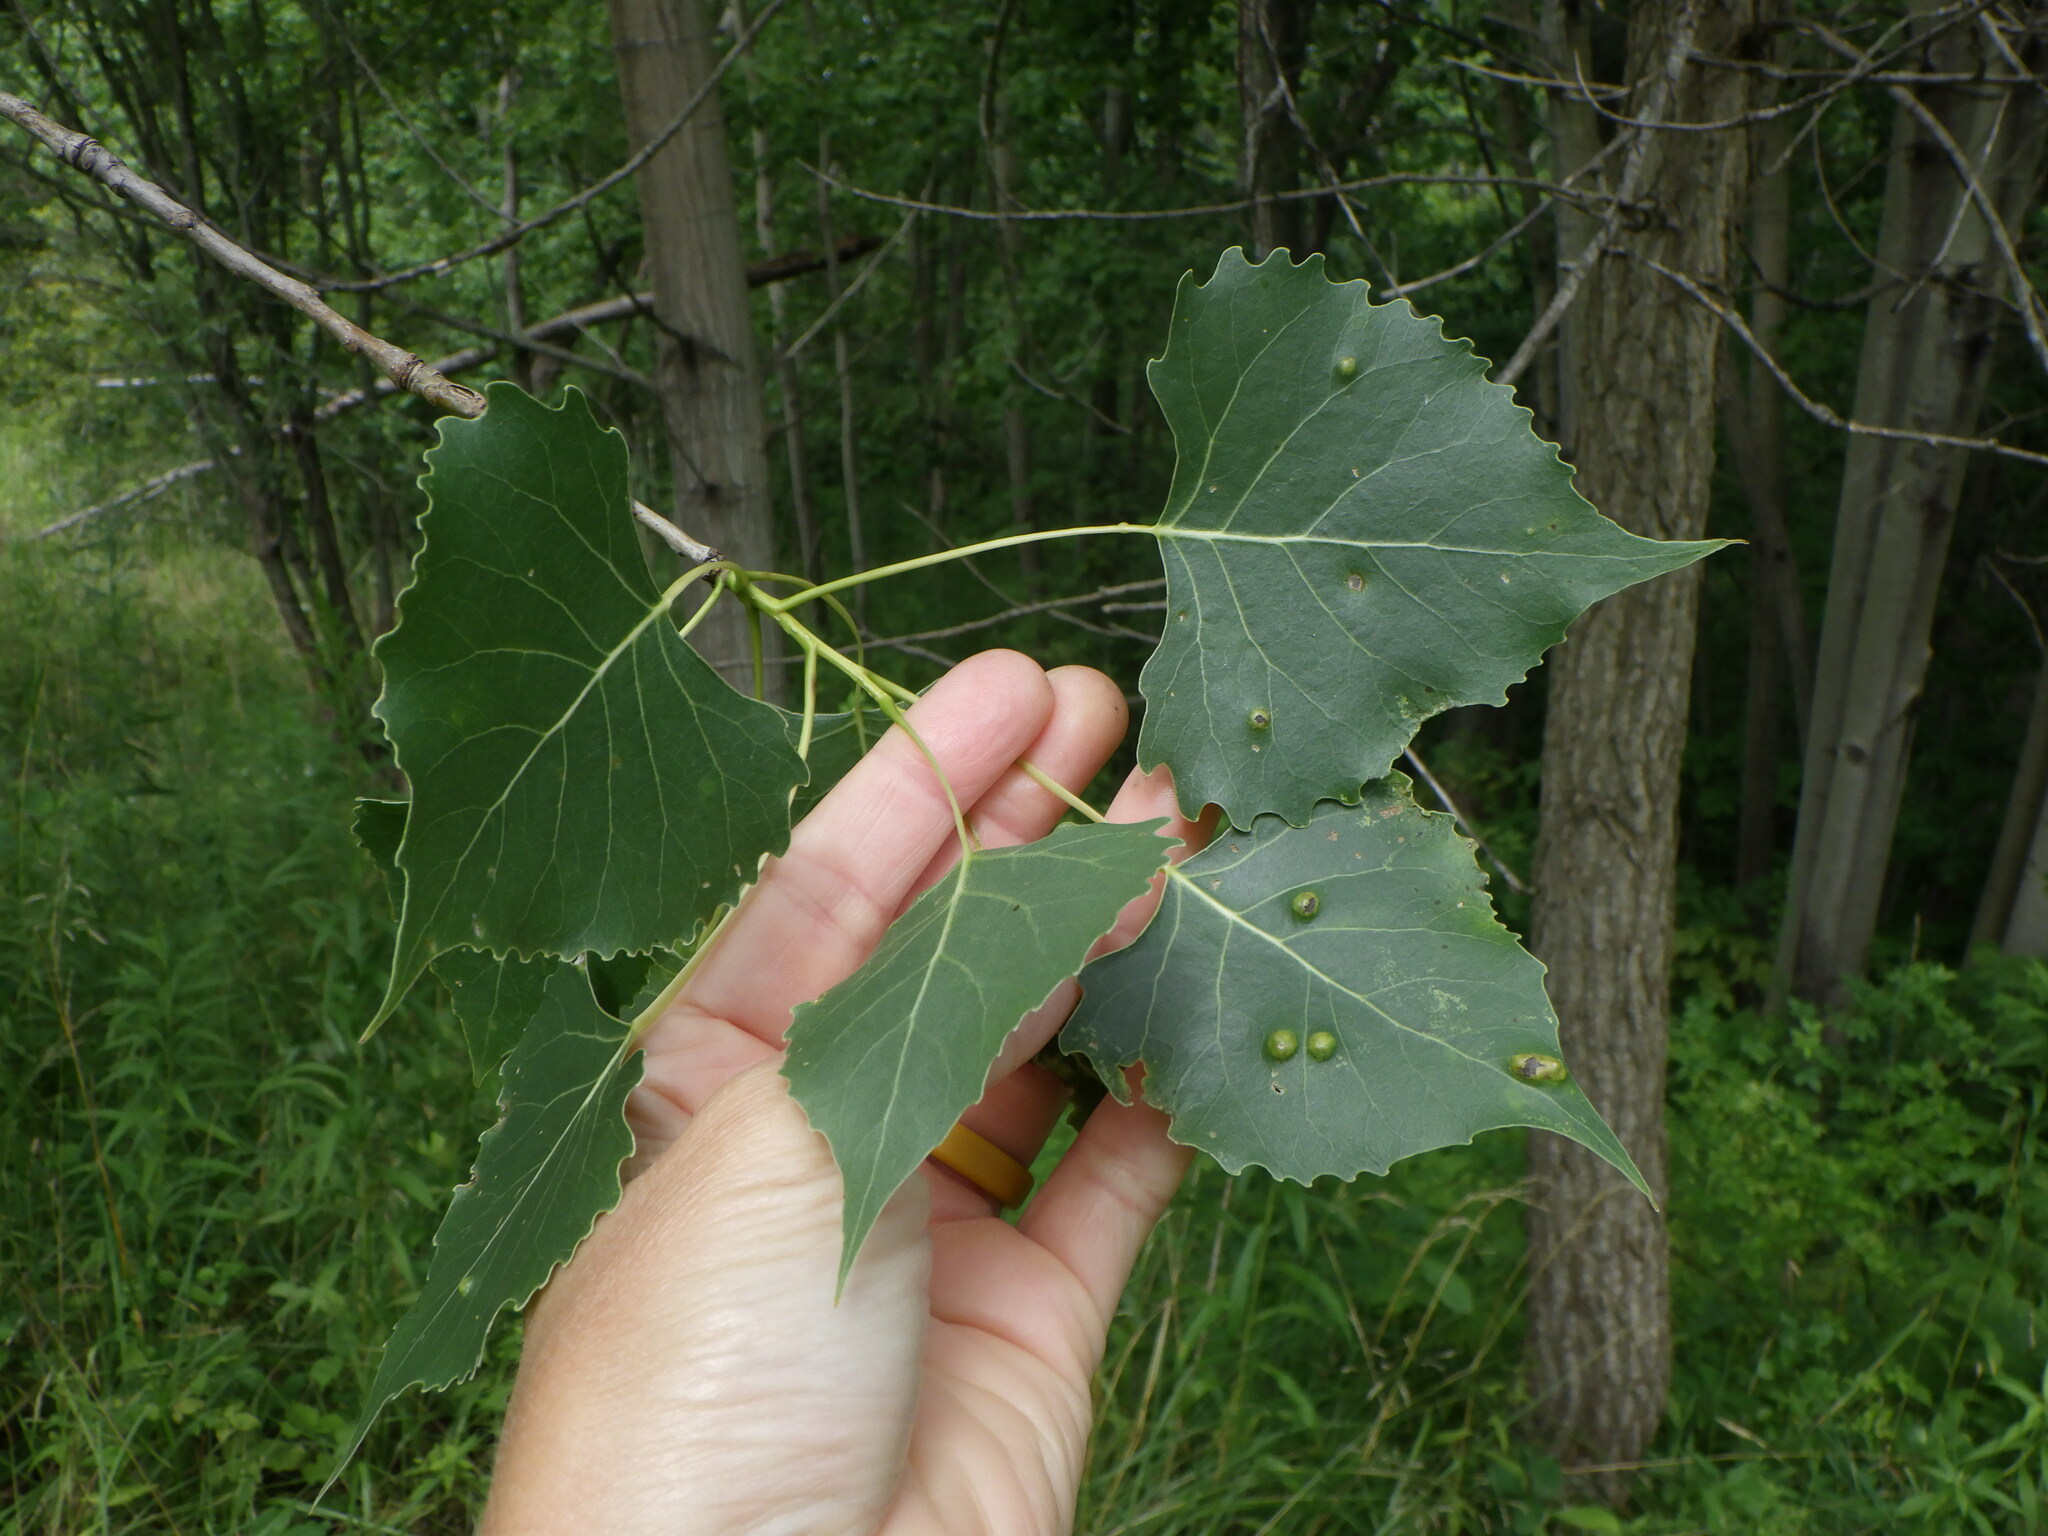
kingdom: Animalia
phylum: Arthropoda
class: Insecta
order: Diptera
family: Cecidomyiidae
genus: Harmandiola
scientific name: Harmandiola tremulae
